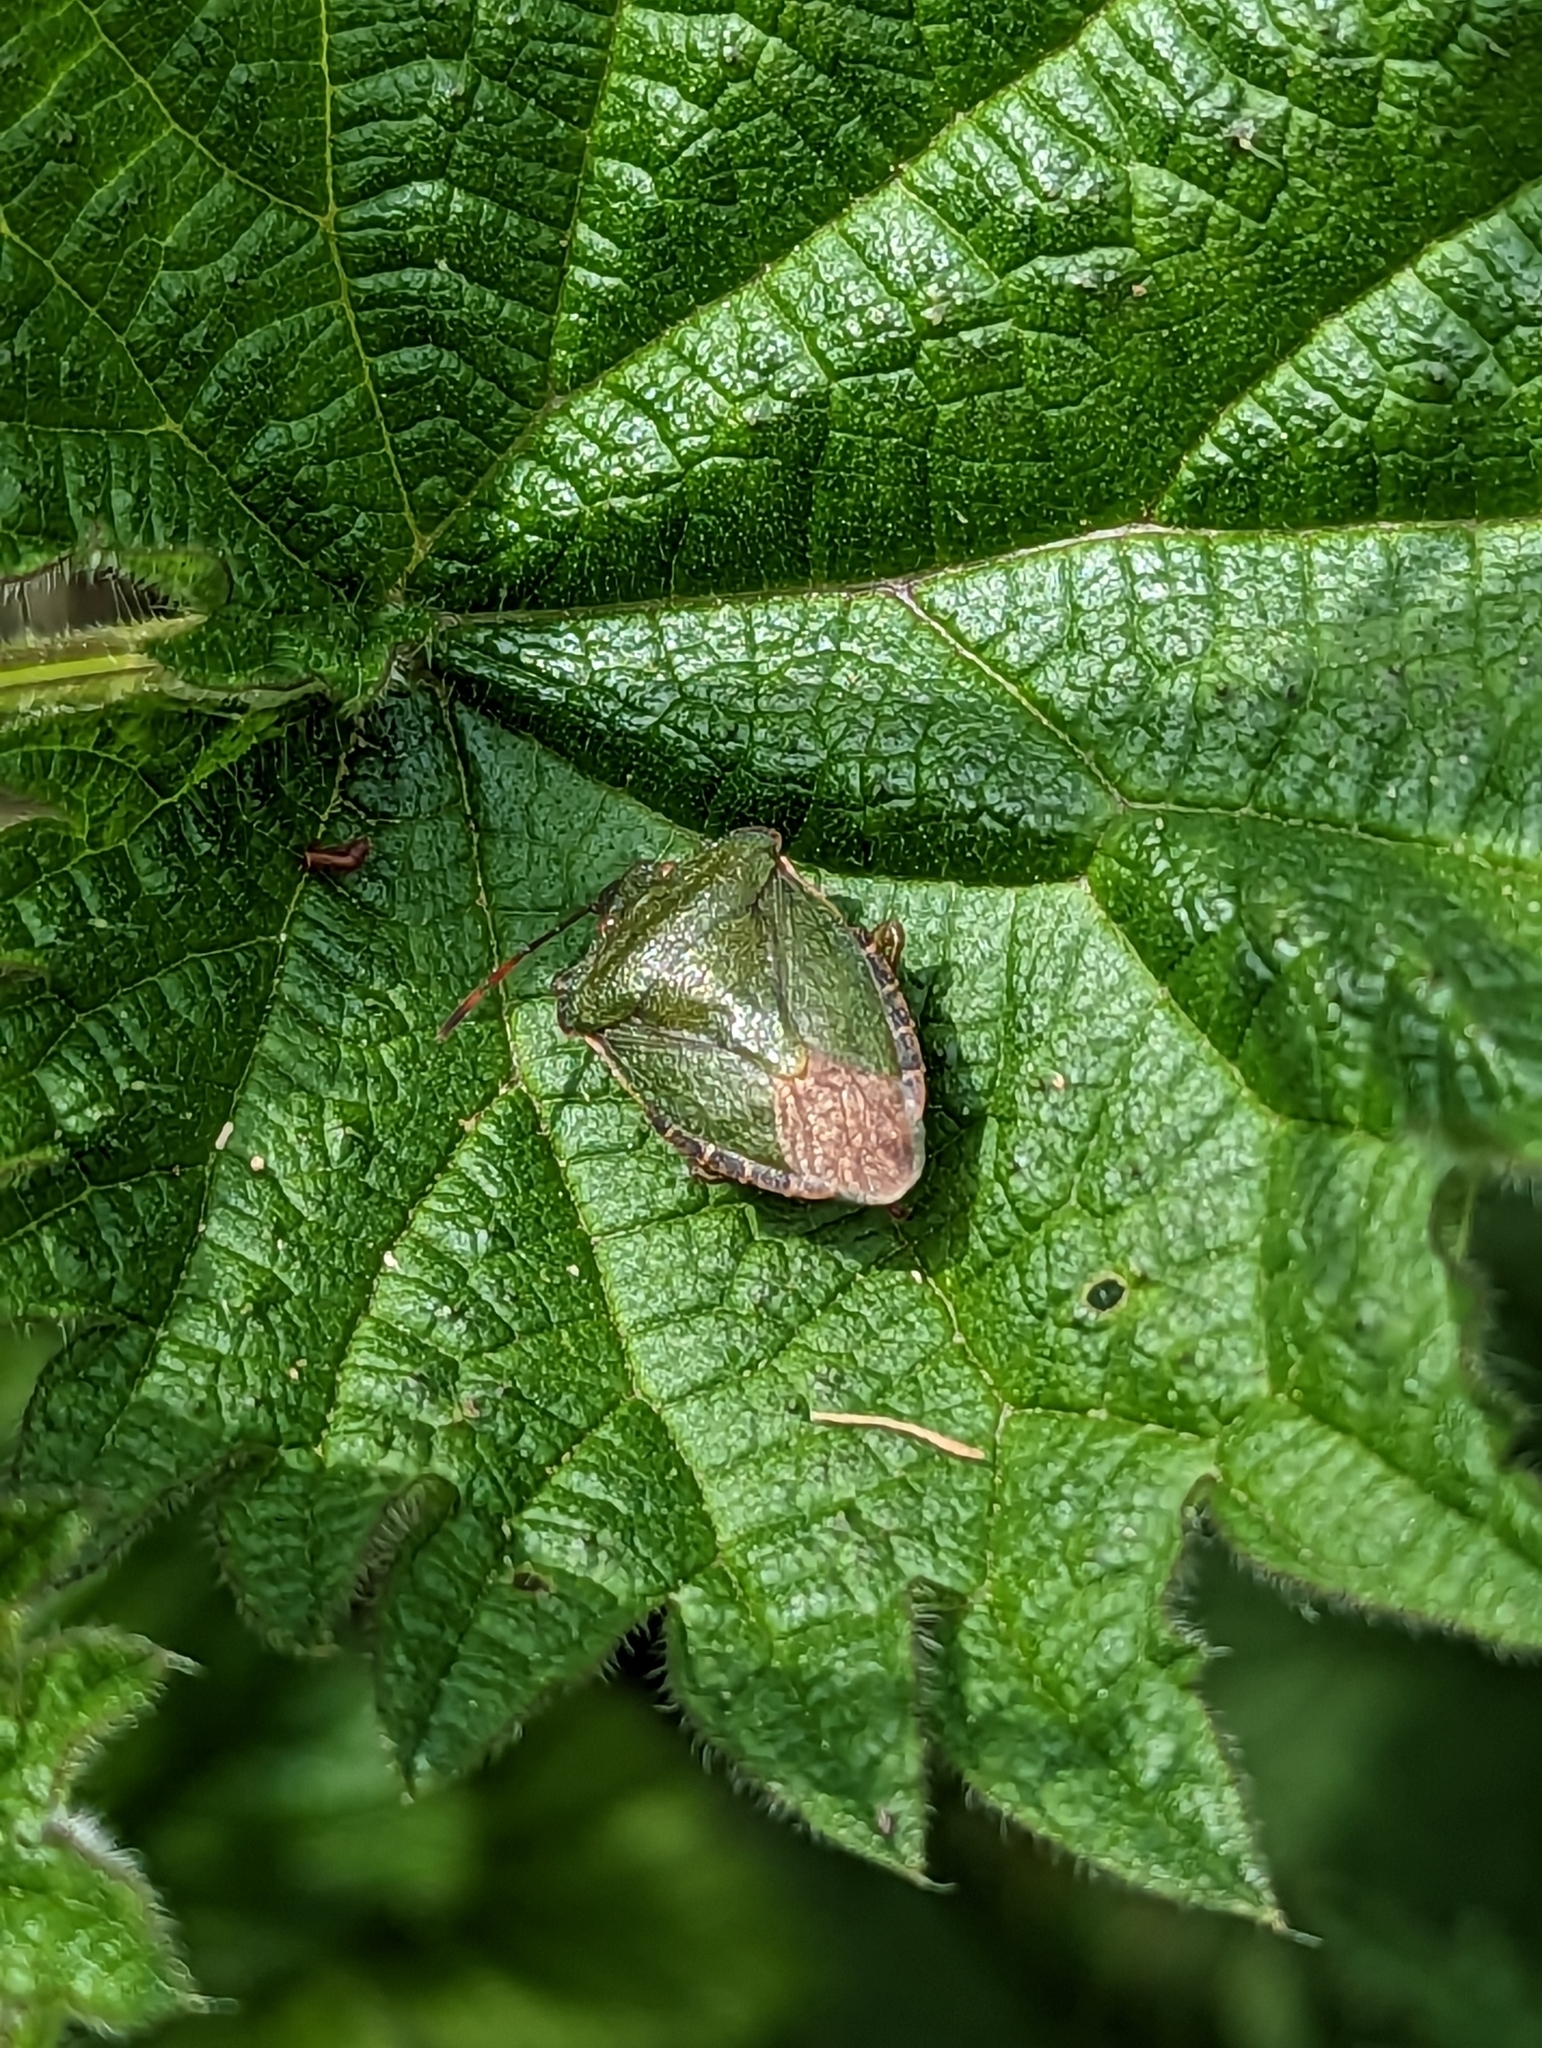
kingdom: Animalia
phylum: Arthropoda
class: Insecta
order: Hemiptera
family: Pentatomidae
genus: Palomena
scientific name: Palomena prasina
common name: Green shieldbug
